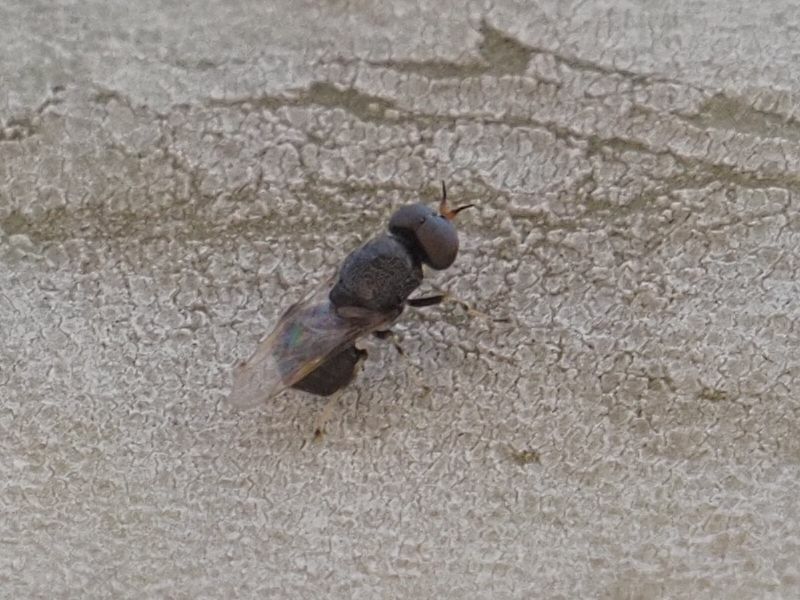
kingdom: Animalia
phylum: Arthropoda
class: Insecta
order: Diptera
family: Stratiomyidae
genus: Alliophleps
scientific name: Alliophleps elliptica
